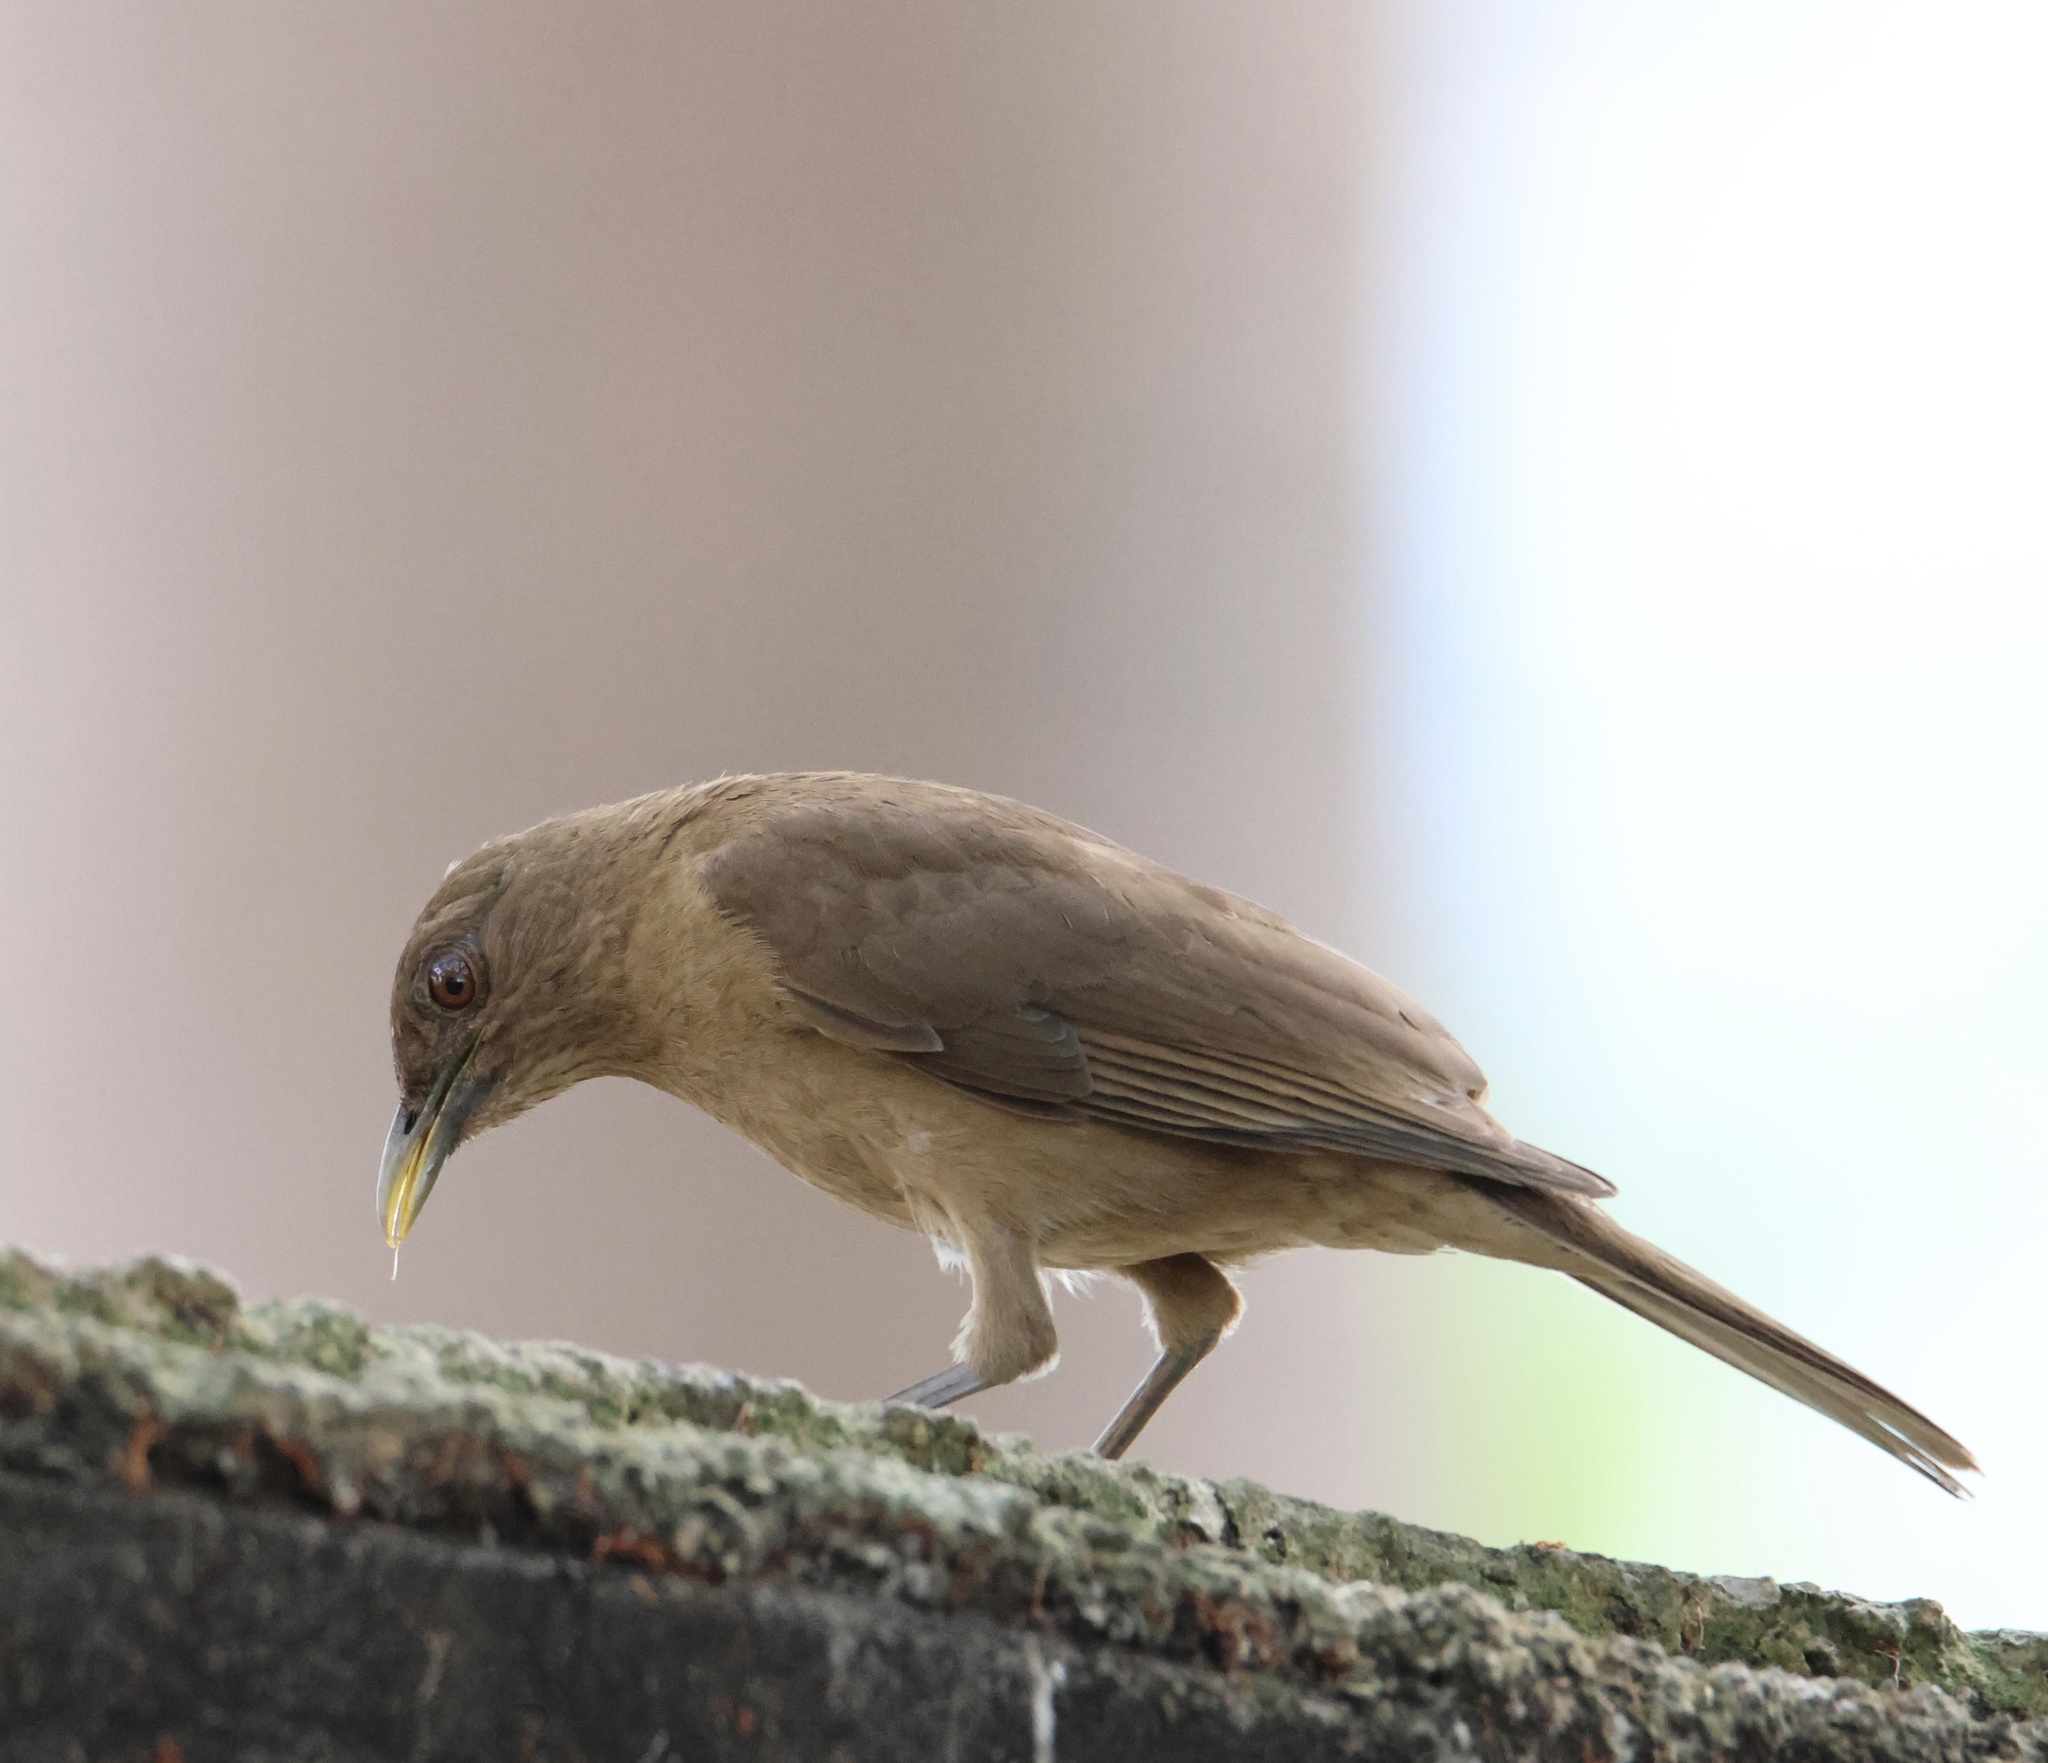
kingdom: Animalia
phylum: Chordata
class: Aves
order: Passeriformes
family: Turdidae
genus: Turdus
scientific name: Turdus grayi
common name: Clay-colored thrush
